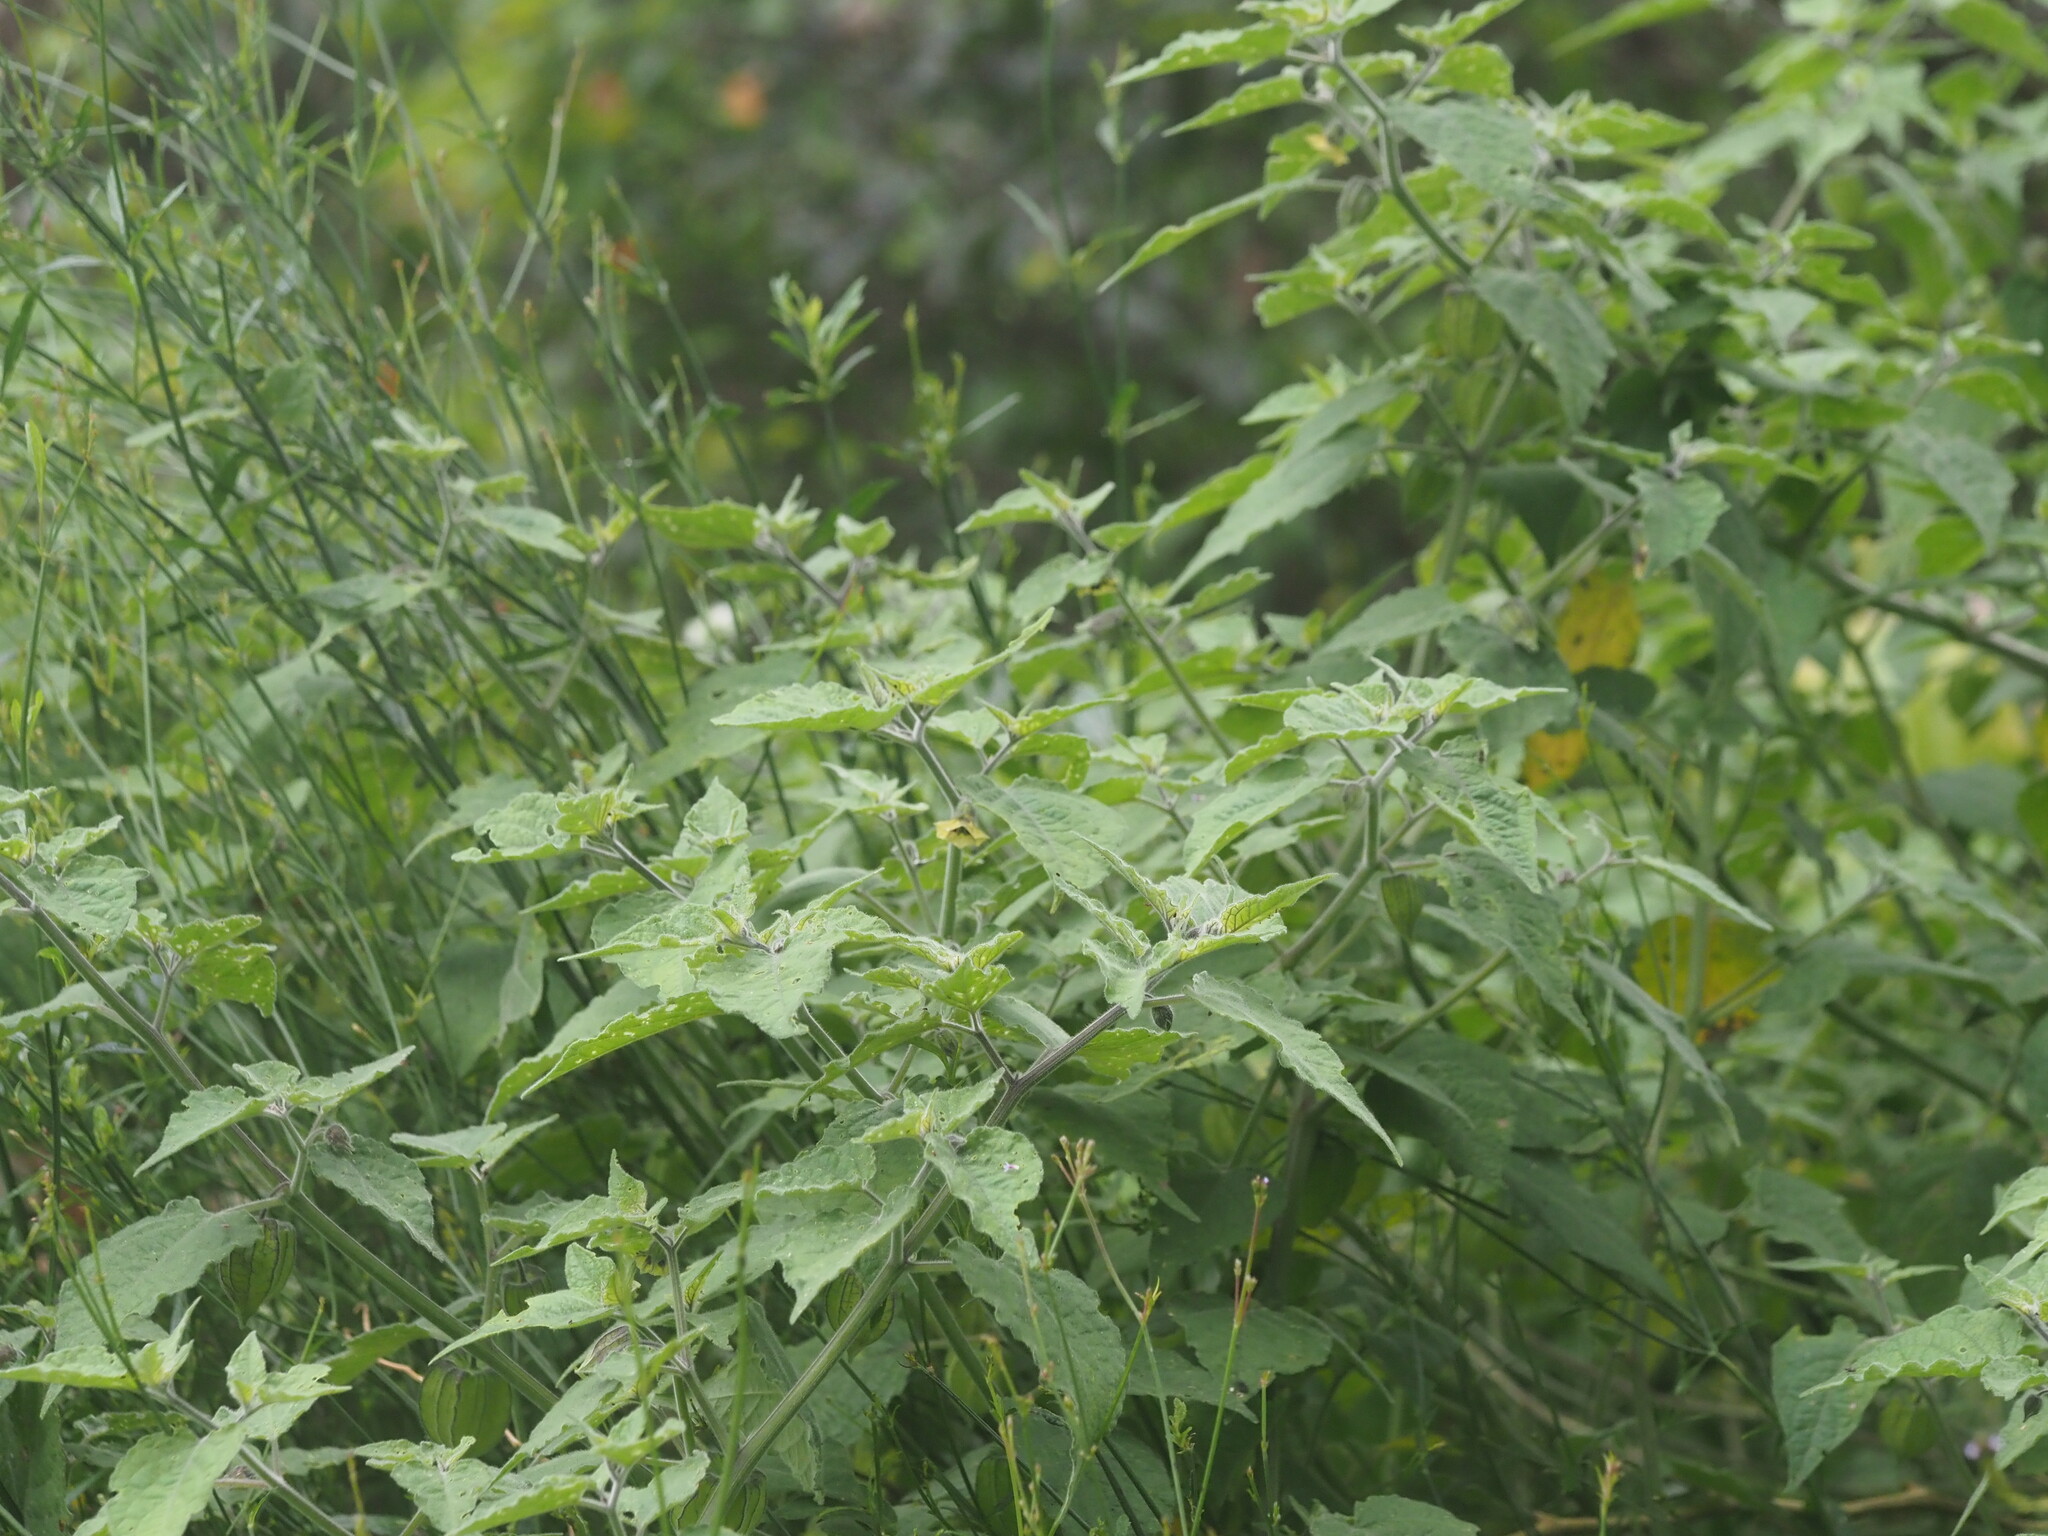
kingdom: Plantae
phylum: Tracheophyta
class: Magnoliopsida
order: Solanales
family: Solanaceae
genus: Physalis
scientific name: Physalis peruviana
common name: Cape-gooseberry
